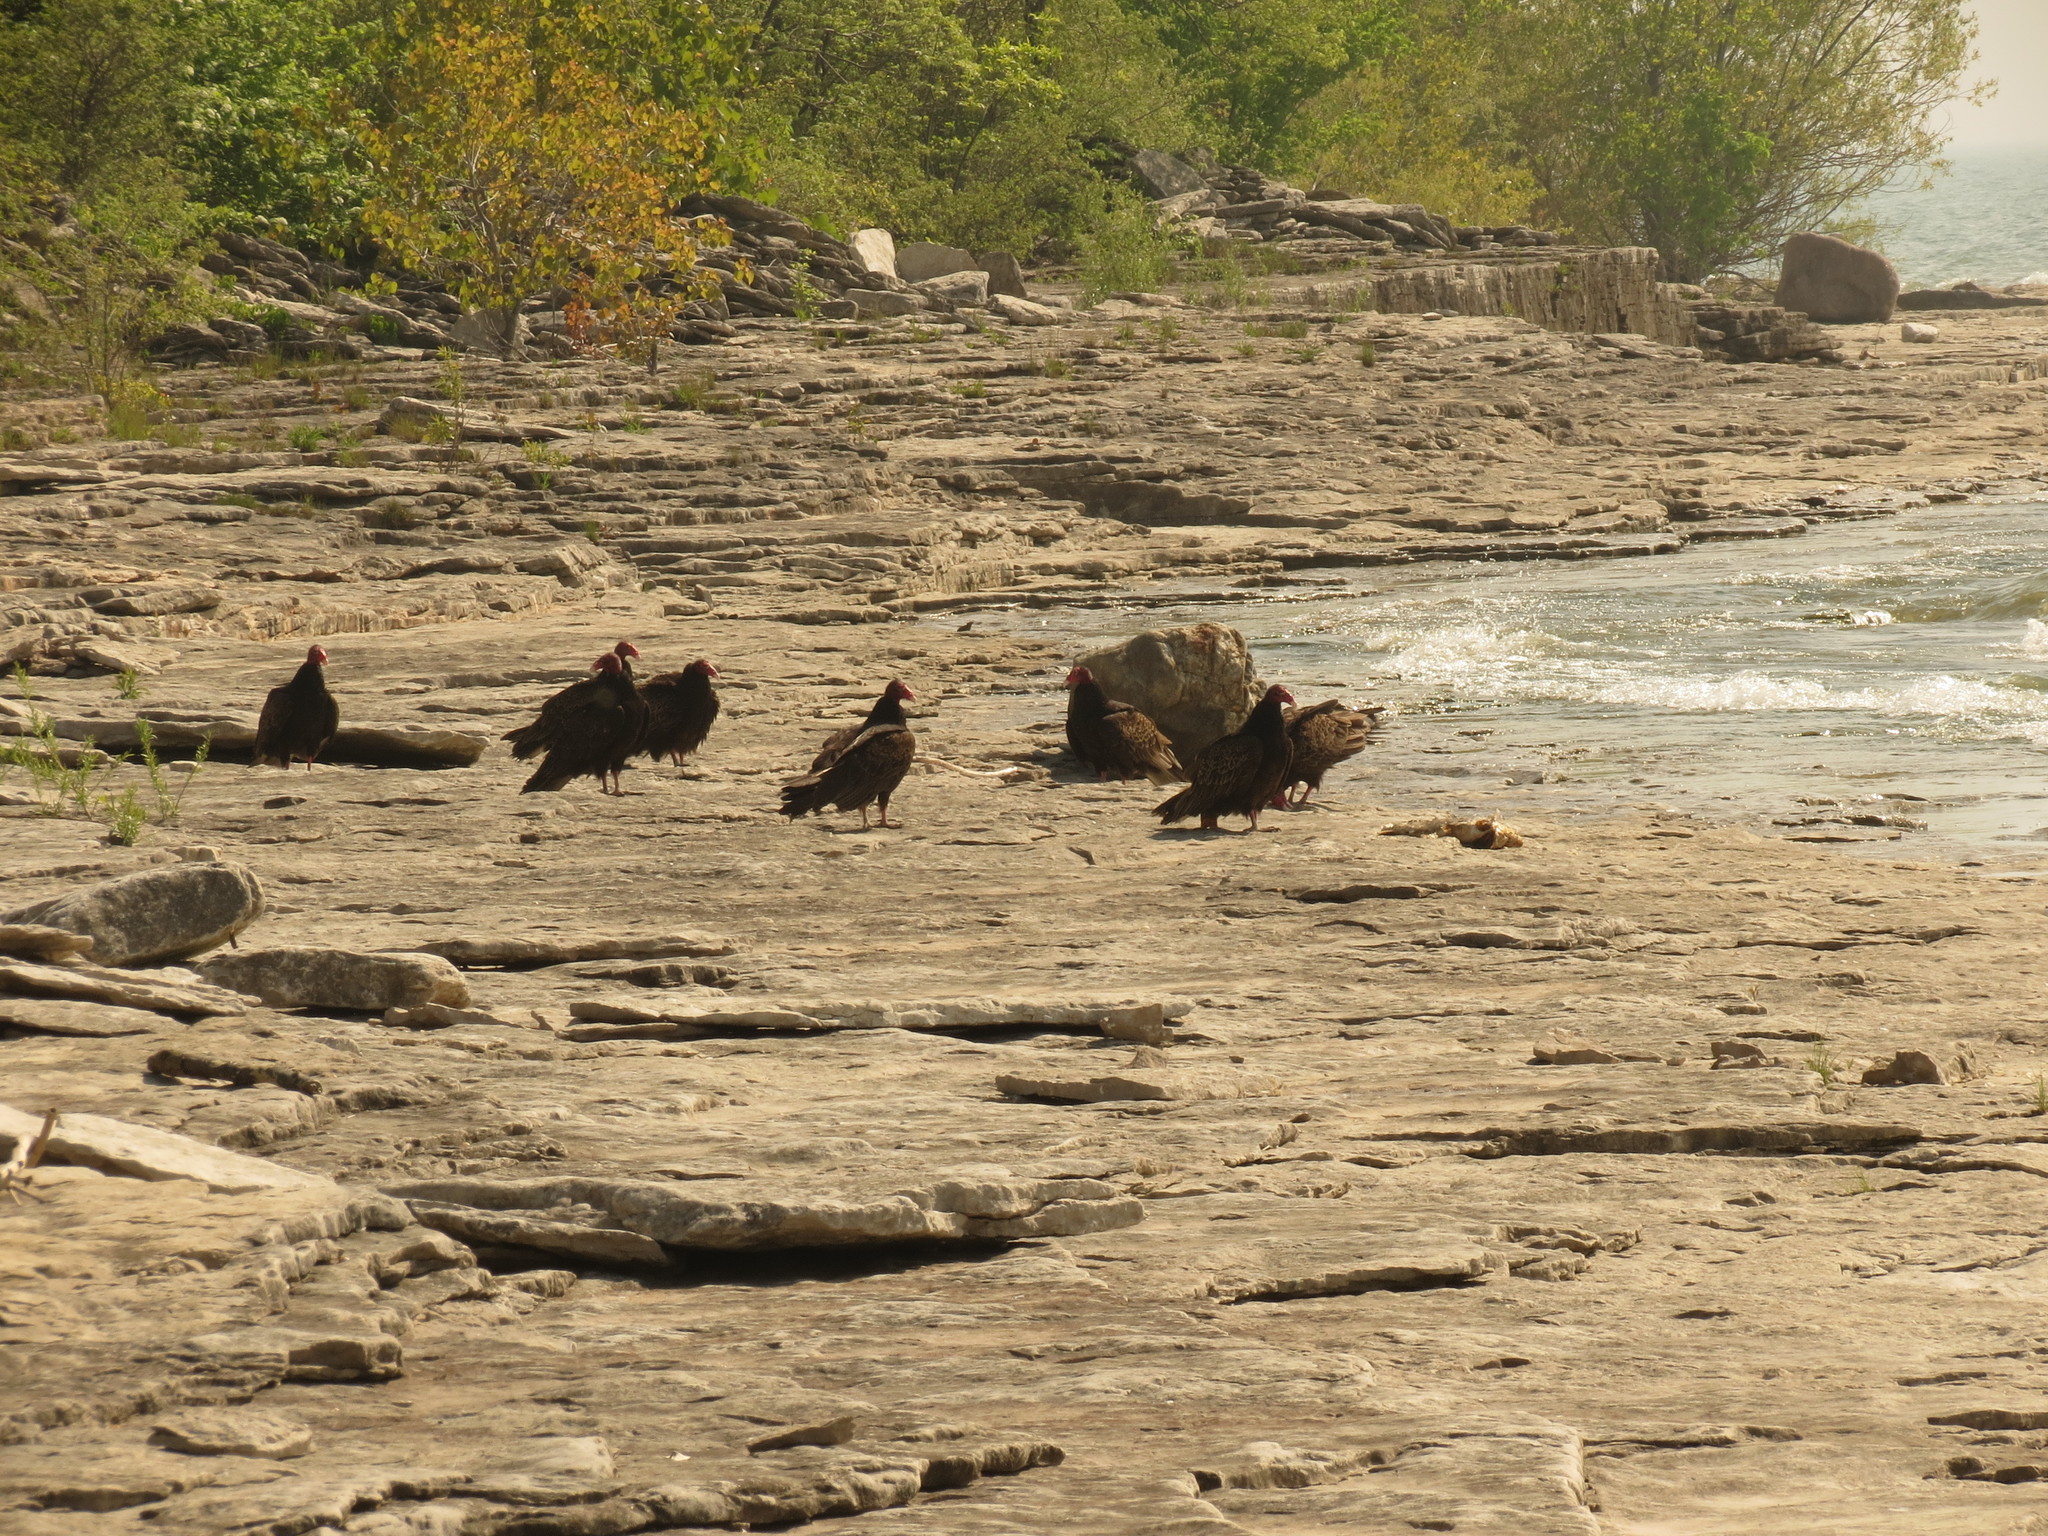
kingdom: Animalia
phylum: Chordata
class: Aves
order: Accipitriformes
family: Cathartidae
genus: Cathartes
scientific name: Cathartes aura
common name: Turkey vulture
